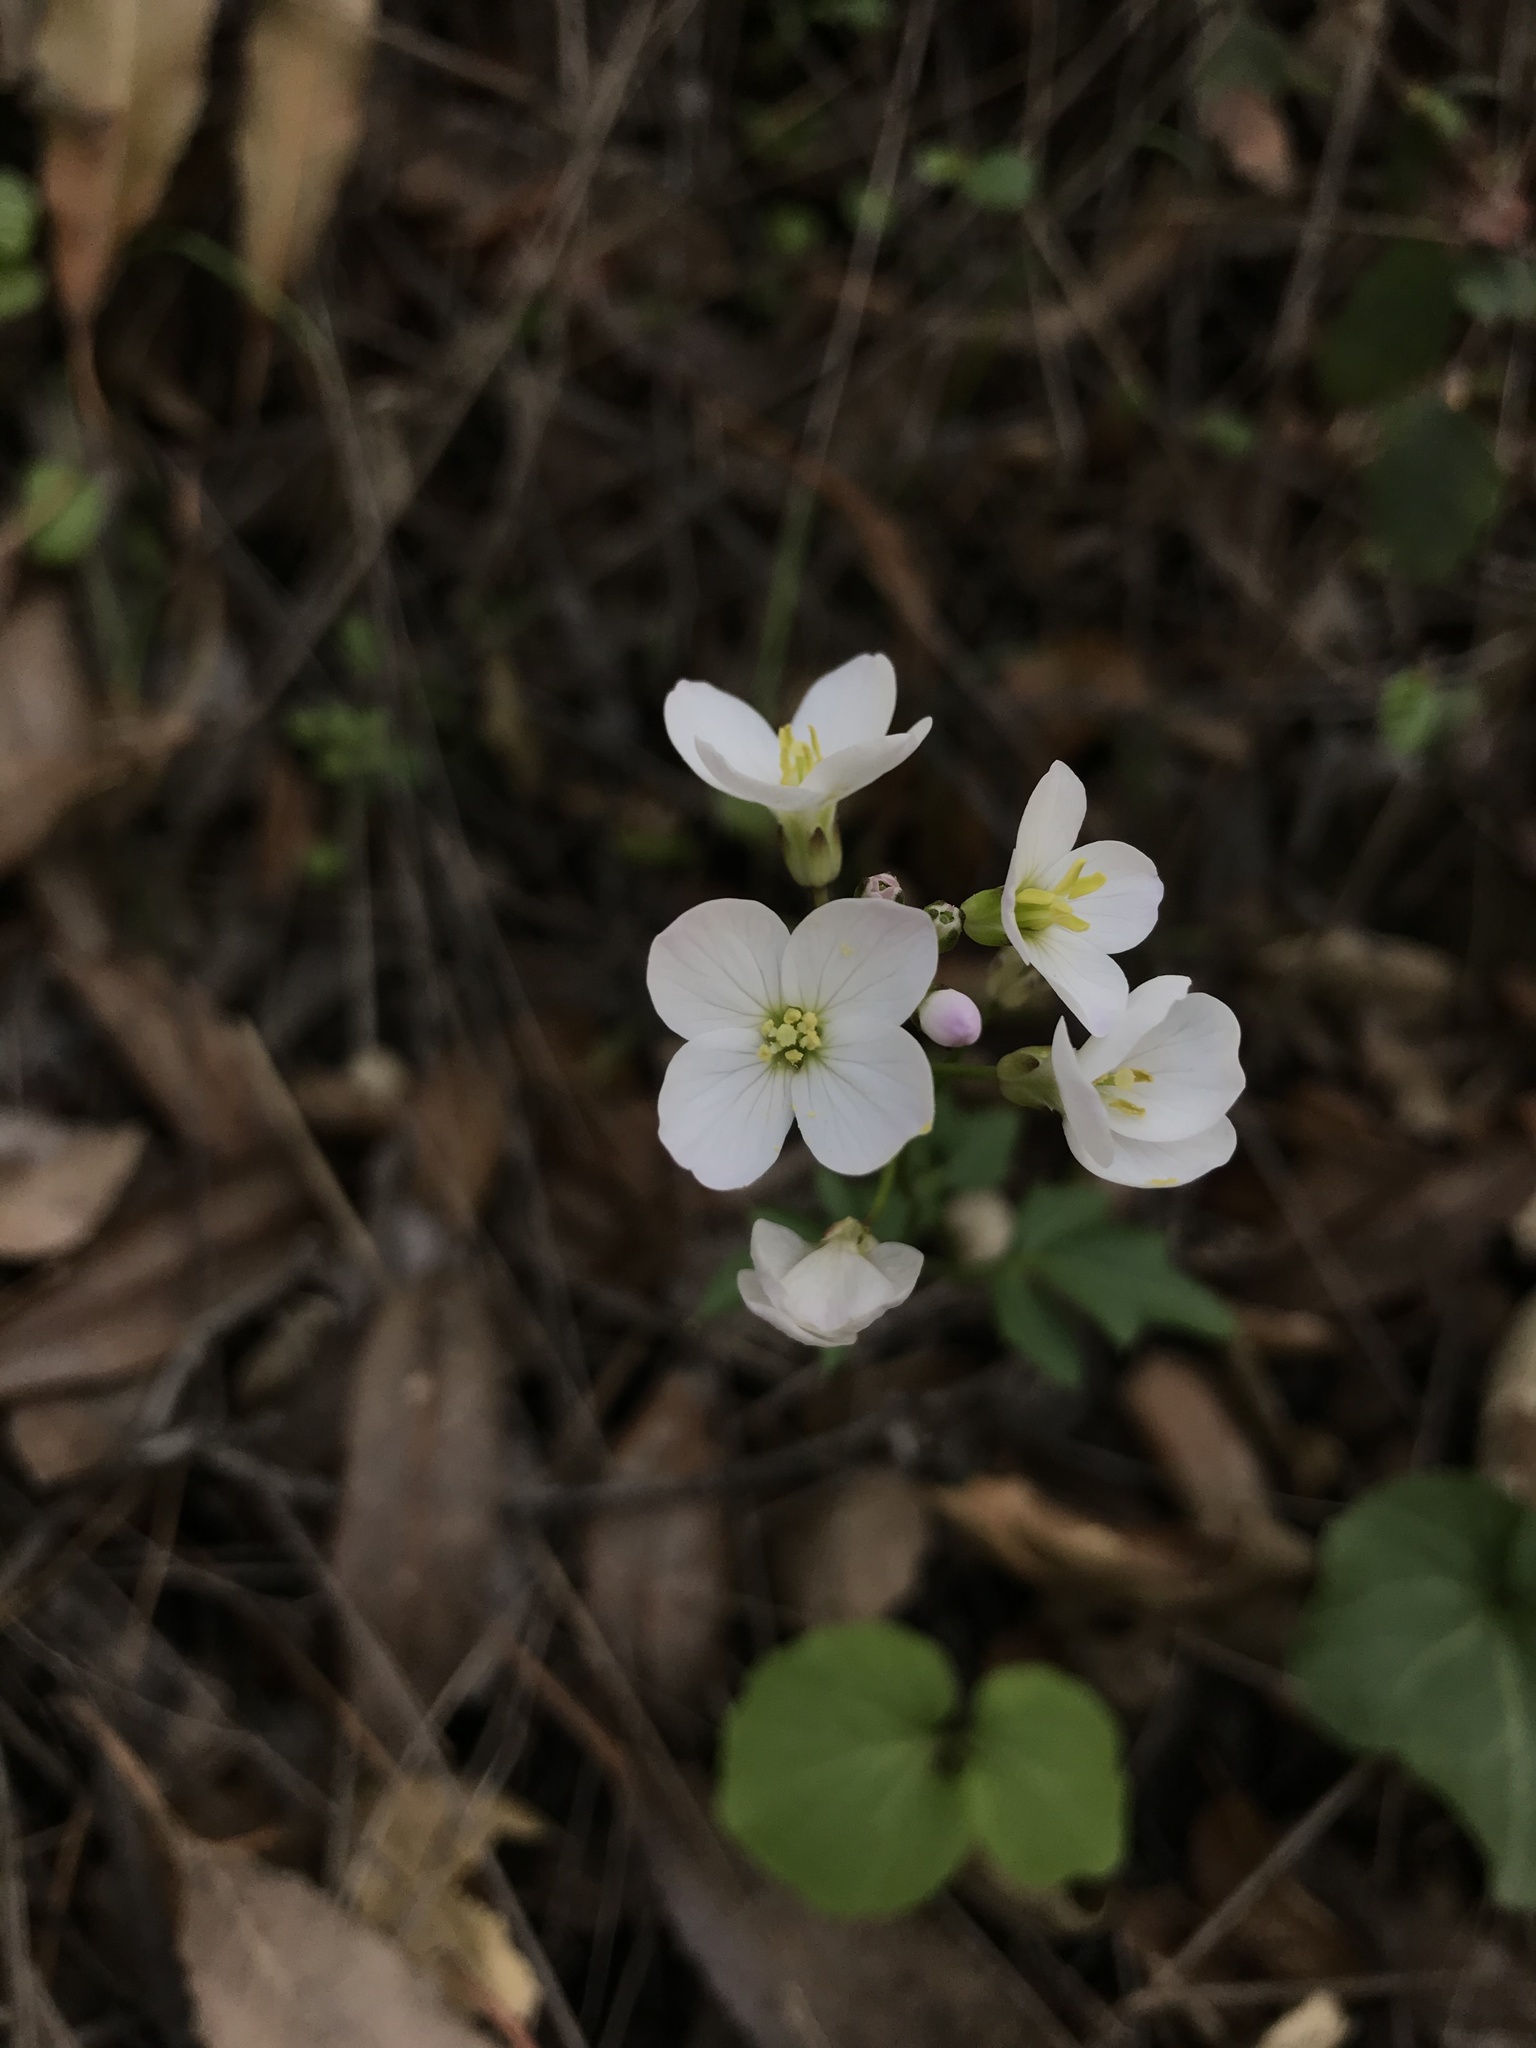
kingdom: Plantae
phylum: Tracheophyta
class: Magnoliopsida
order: Brassicales
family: Brassicaceae
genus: Cardamine
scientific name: Cardamine californica
